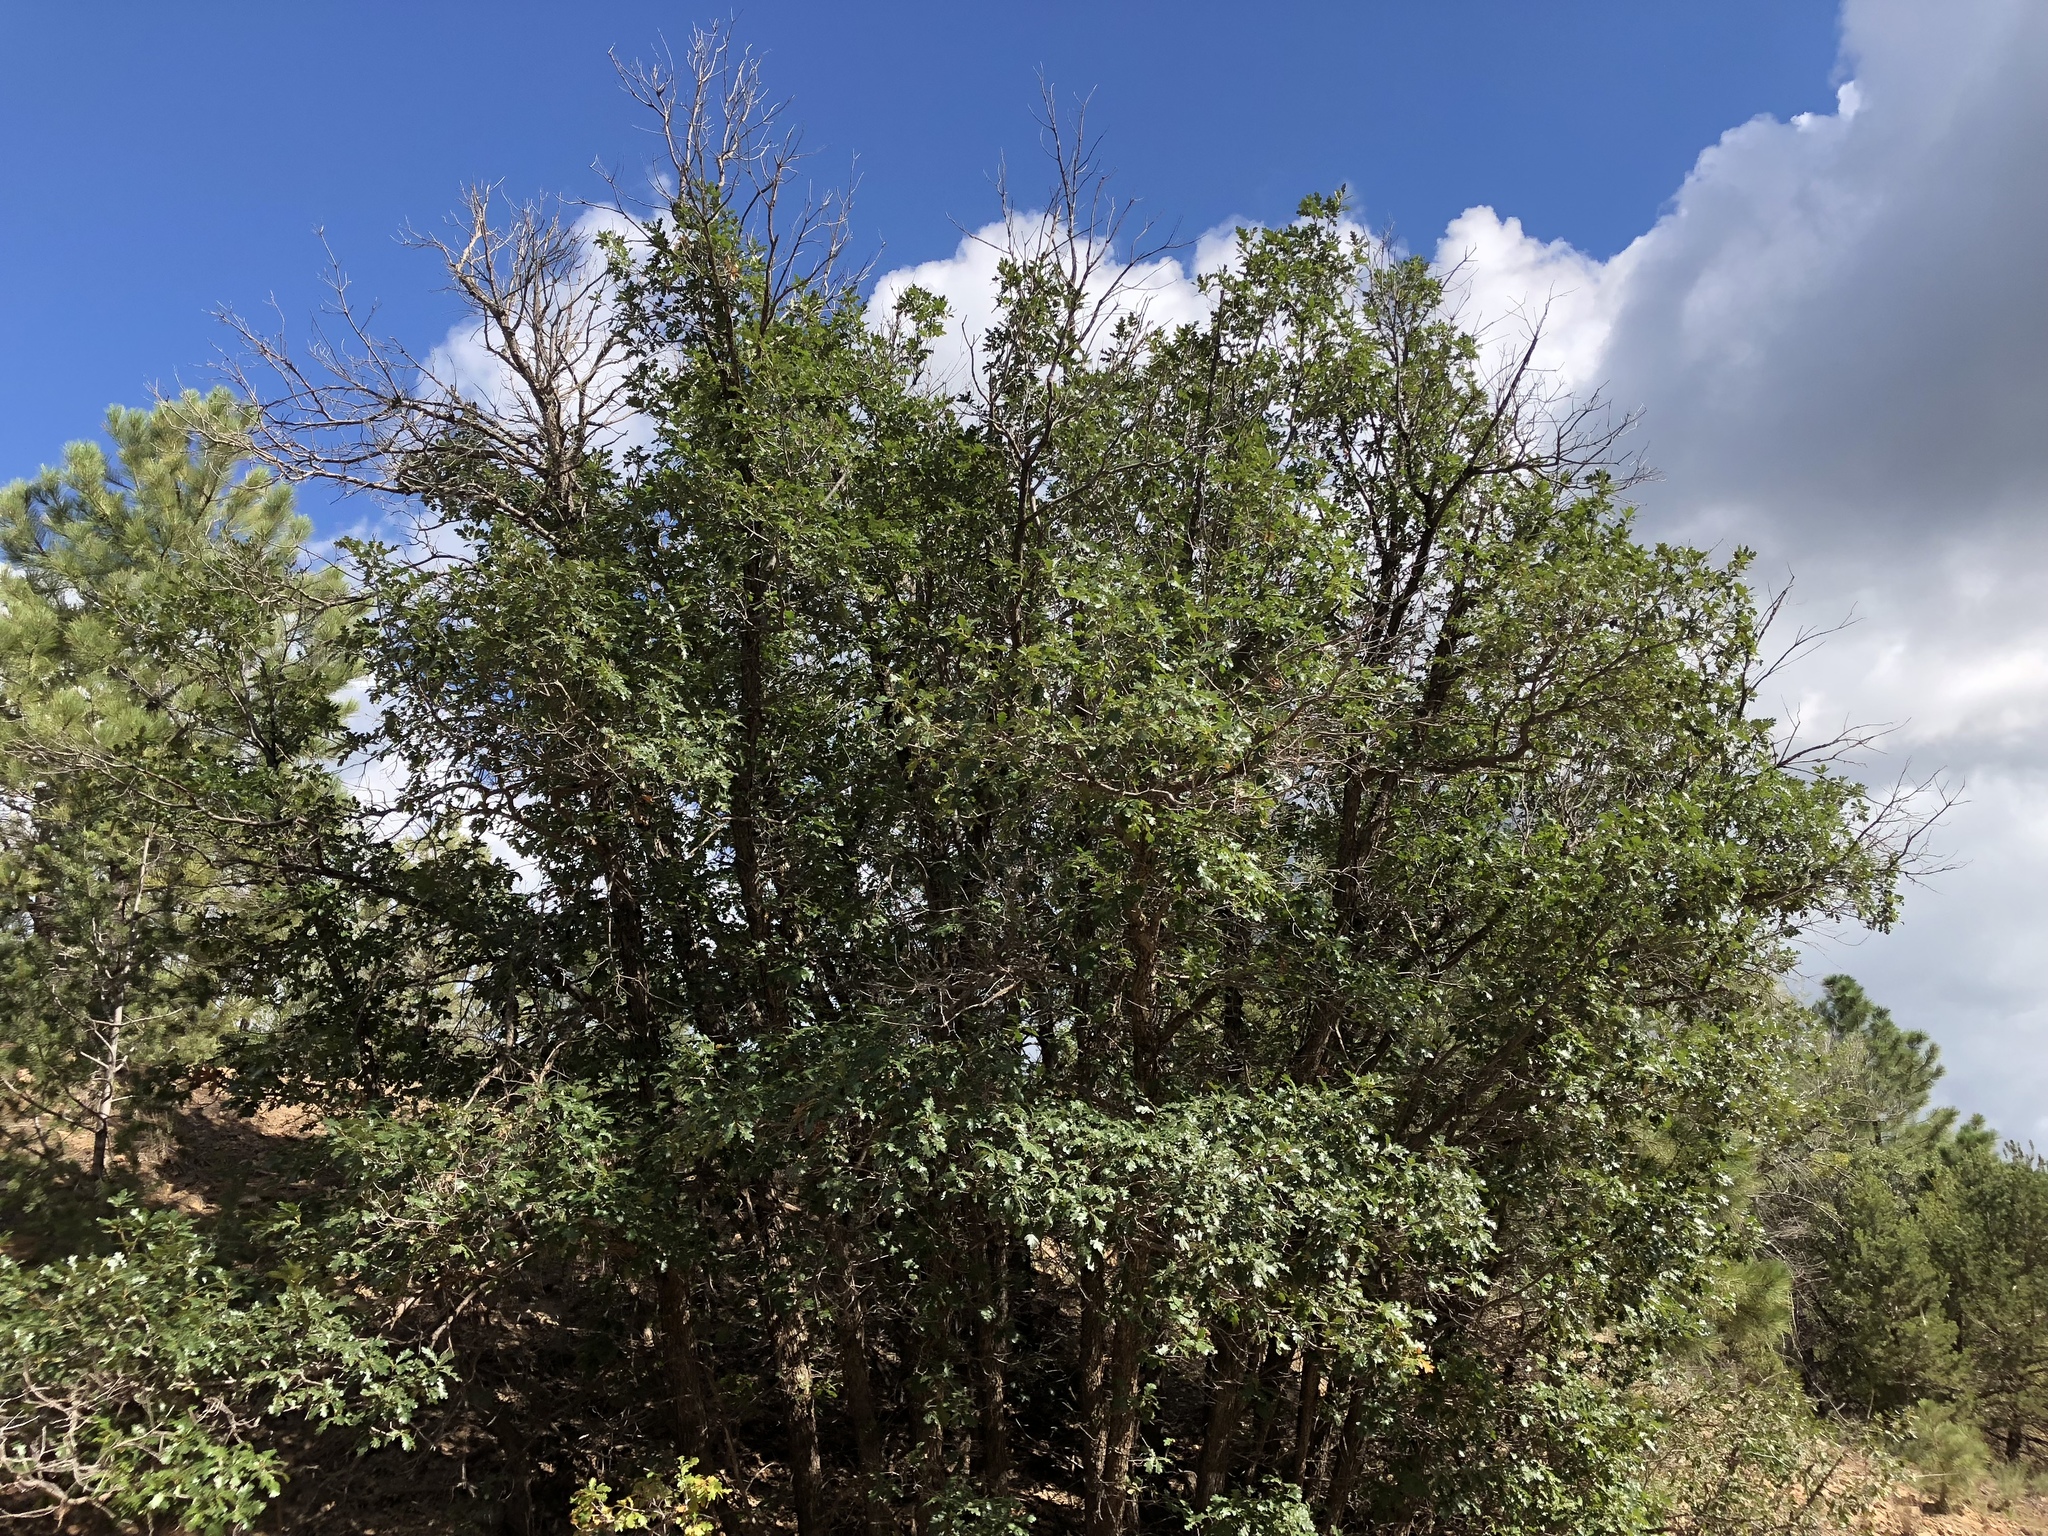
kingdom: Plantae
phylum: Tracheophyta
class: Magnoliopsida
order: Fagales
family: Fagaceae
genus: Quercus
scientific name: Quercus gambelii
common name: Gambel oak
